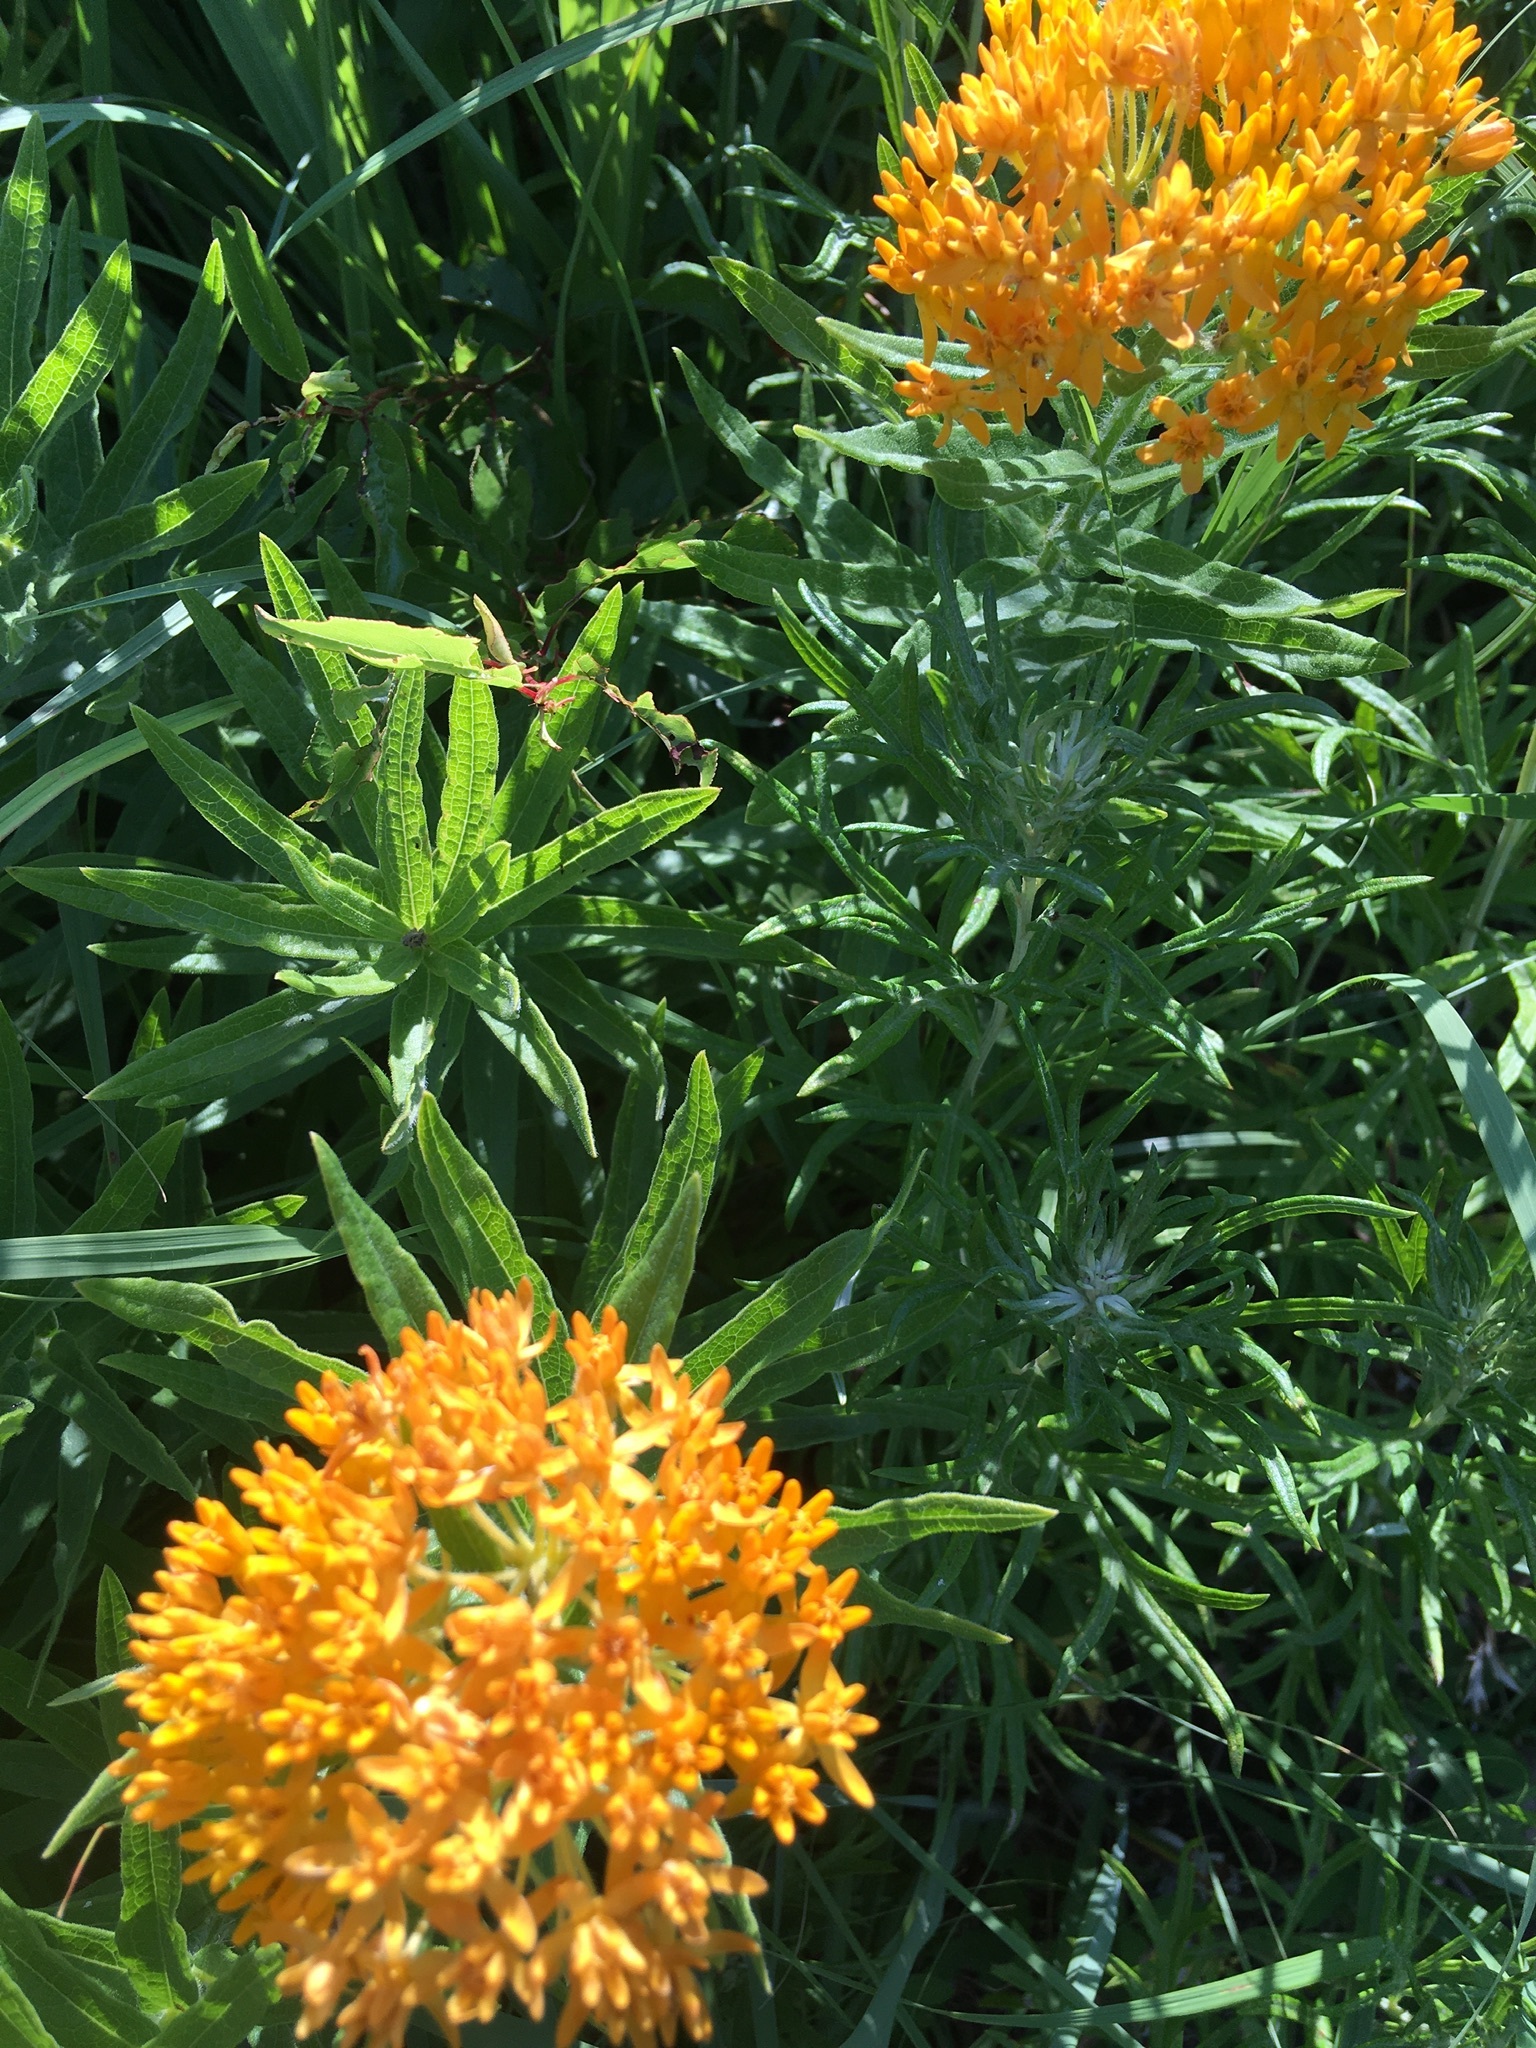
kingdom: Plantae
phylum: Tracheophyta
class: Magnoliopsida
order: Gentianales
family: Apocynaceae
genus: Asclepias
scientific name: Asclepias tuberosa
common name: Butterfly milkweed
